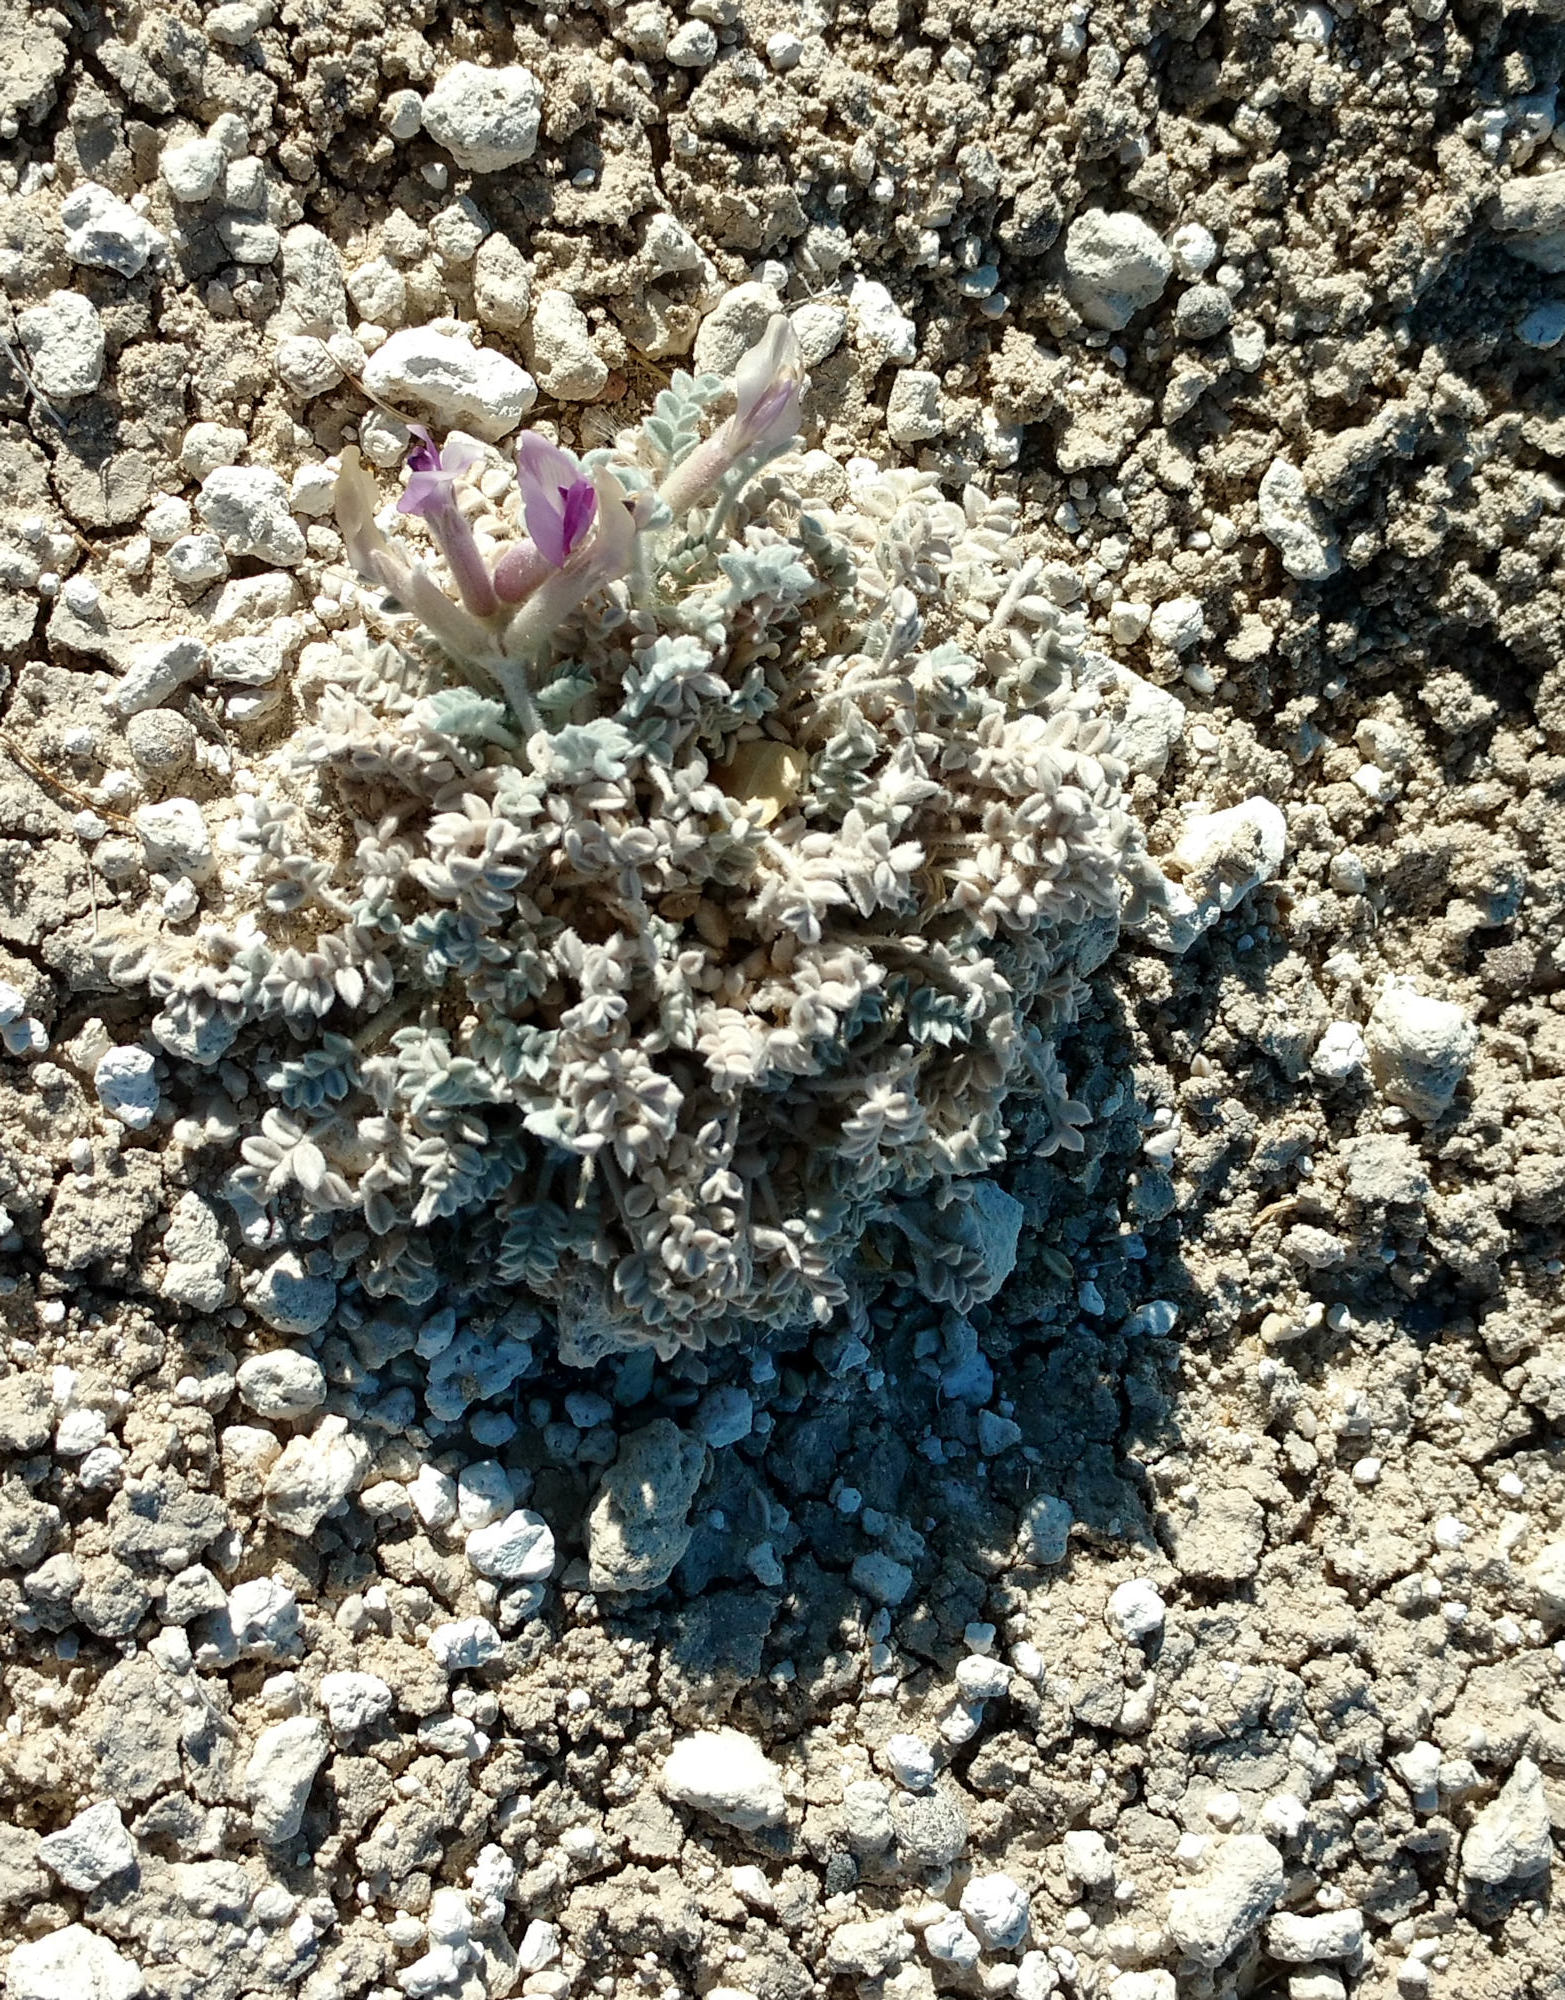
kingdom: Plantae
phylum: Tracheophyta
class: Magnoliopsida
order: Fabales
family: Fabaceae
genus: Astragalus
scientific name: Astragalus phoenix
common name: Ash meadows milk-vetch
